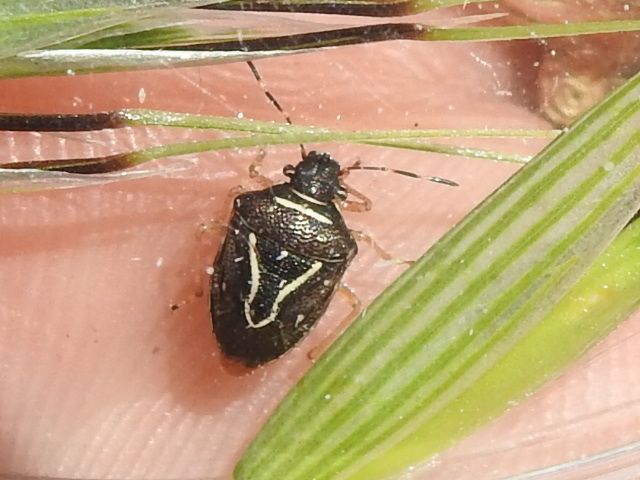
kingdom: Animalia
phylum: Arthropoda
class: Insecta
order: Hemiptera
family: Pentatomidae
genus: Mormidea
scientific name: Mormidea lugens
